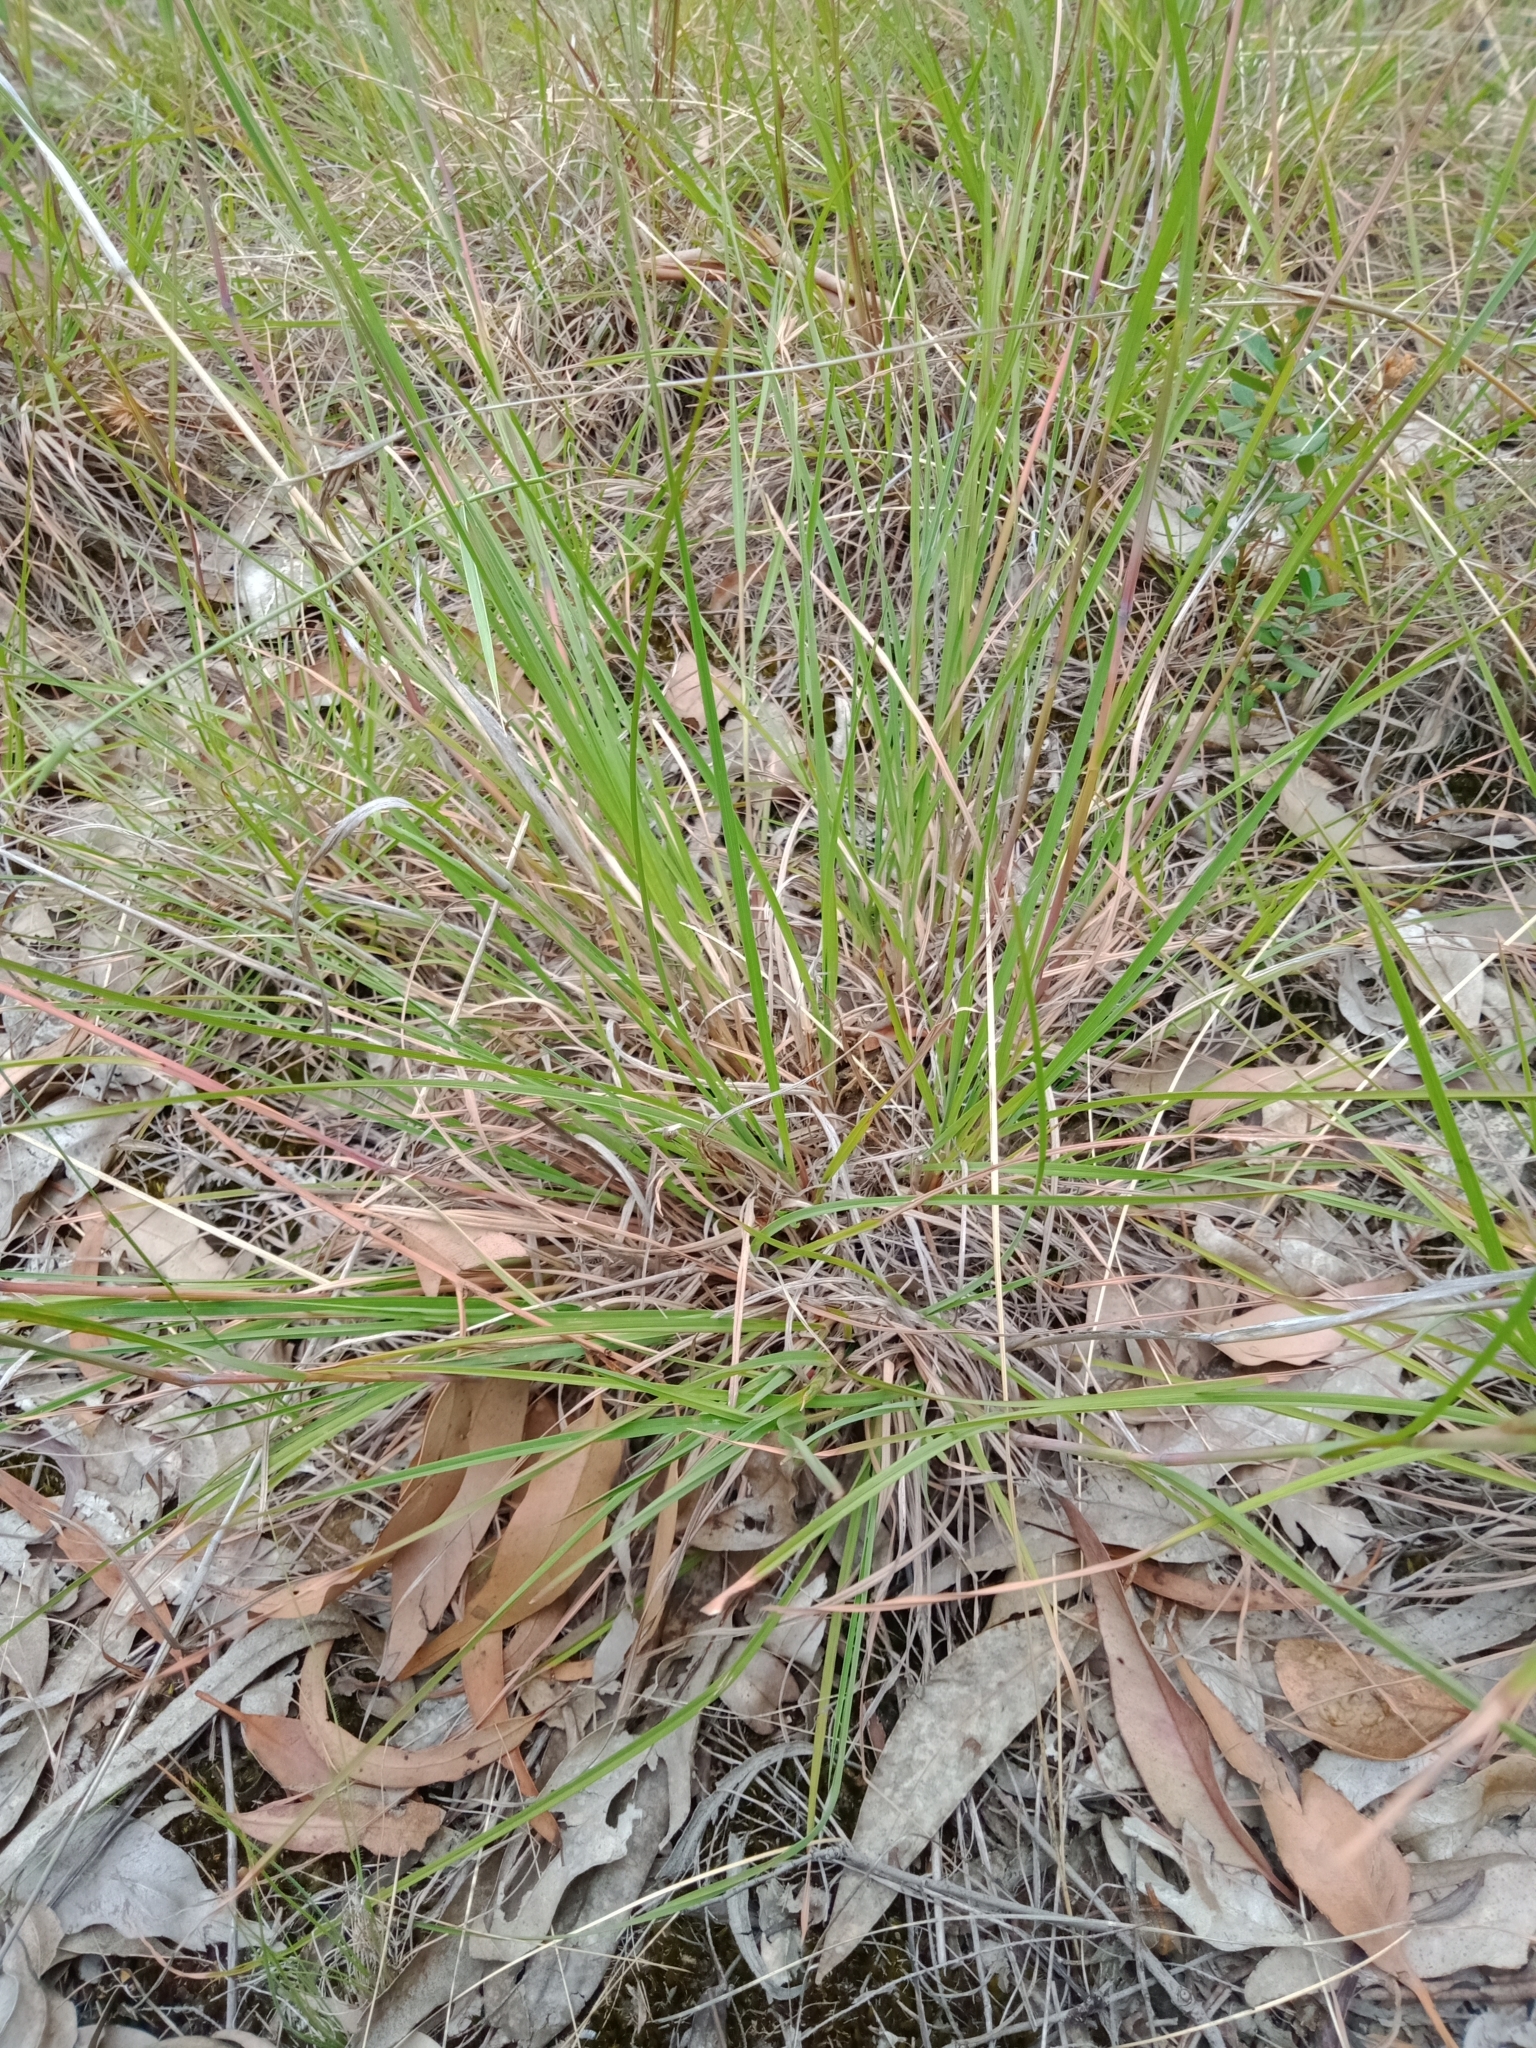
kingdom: Plantae
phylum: Tracheophyta
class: Liliopsida
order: Poales
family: Poaceae
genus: Themeda
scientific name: Themeda triandra
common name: Kangaroo grass
